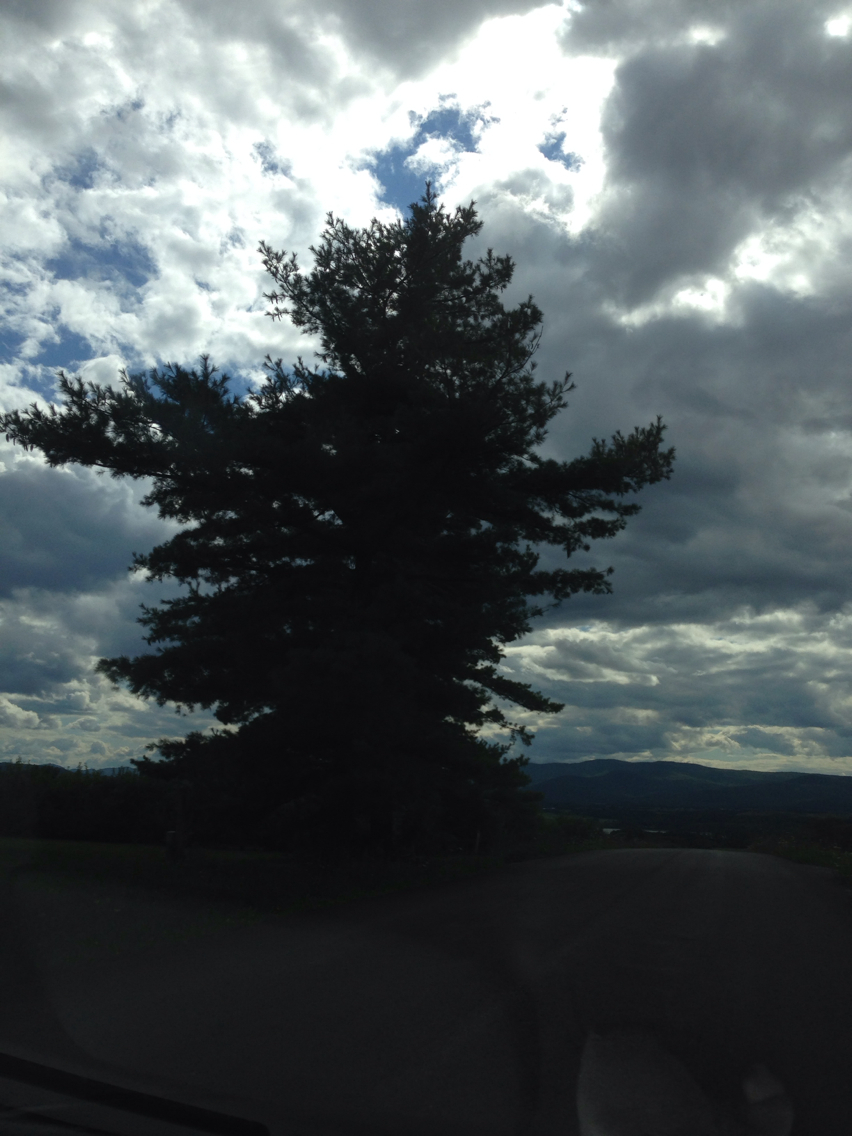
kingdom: Plantae
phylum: Tracheophyta
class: Pinopsida
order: Pinales
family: Pinaceae
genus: Pinus
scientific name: Pinus strobus
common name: Weymouth pine
